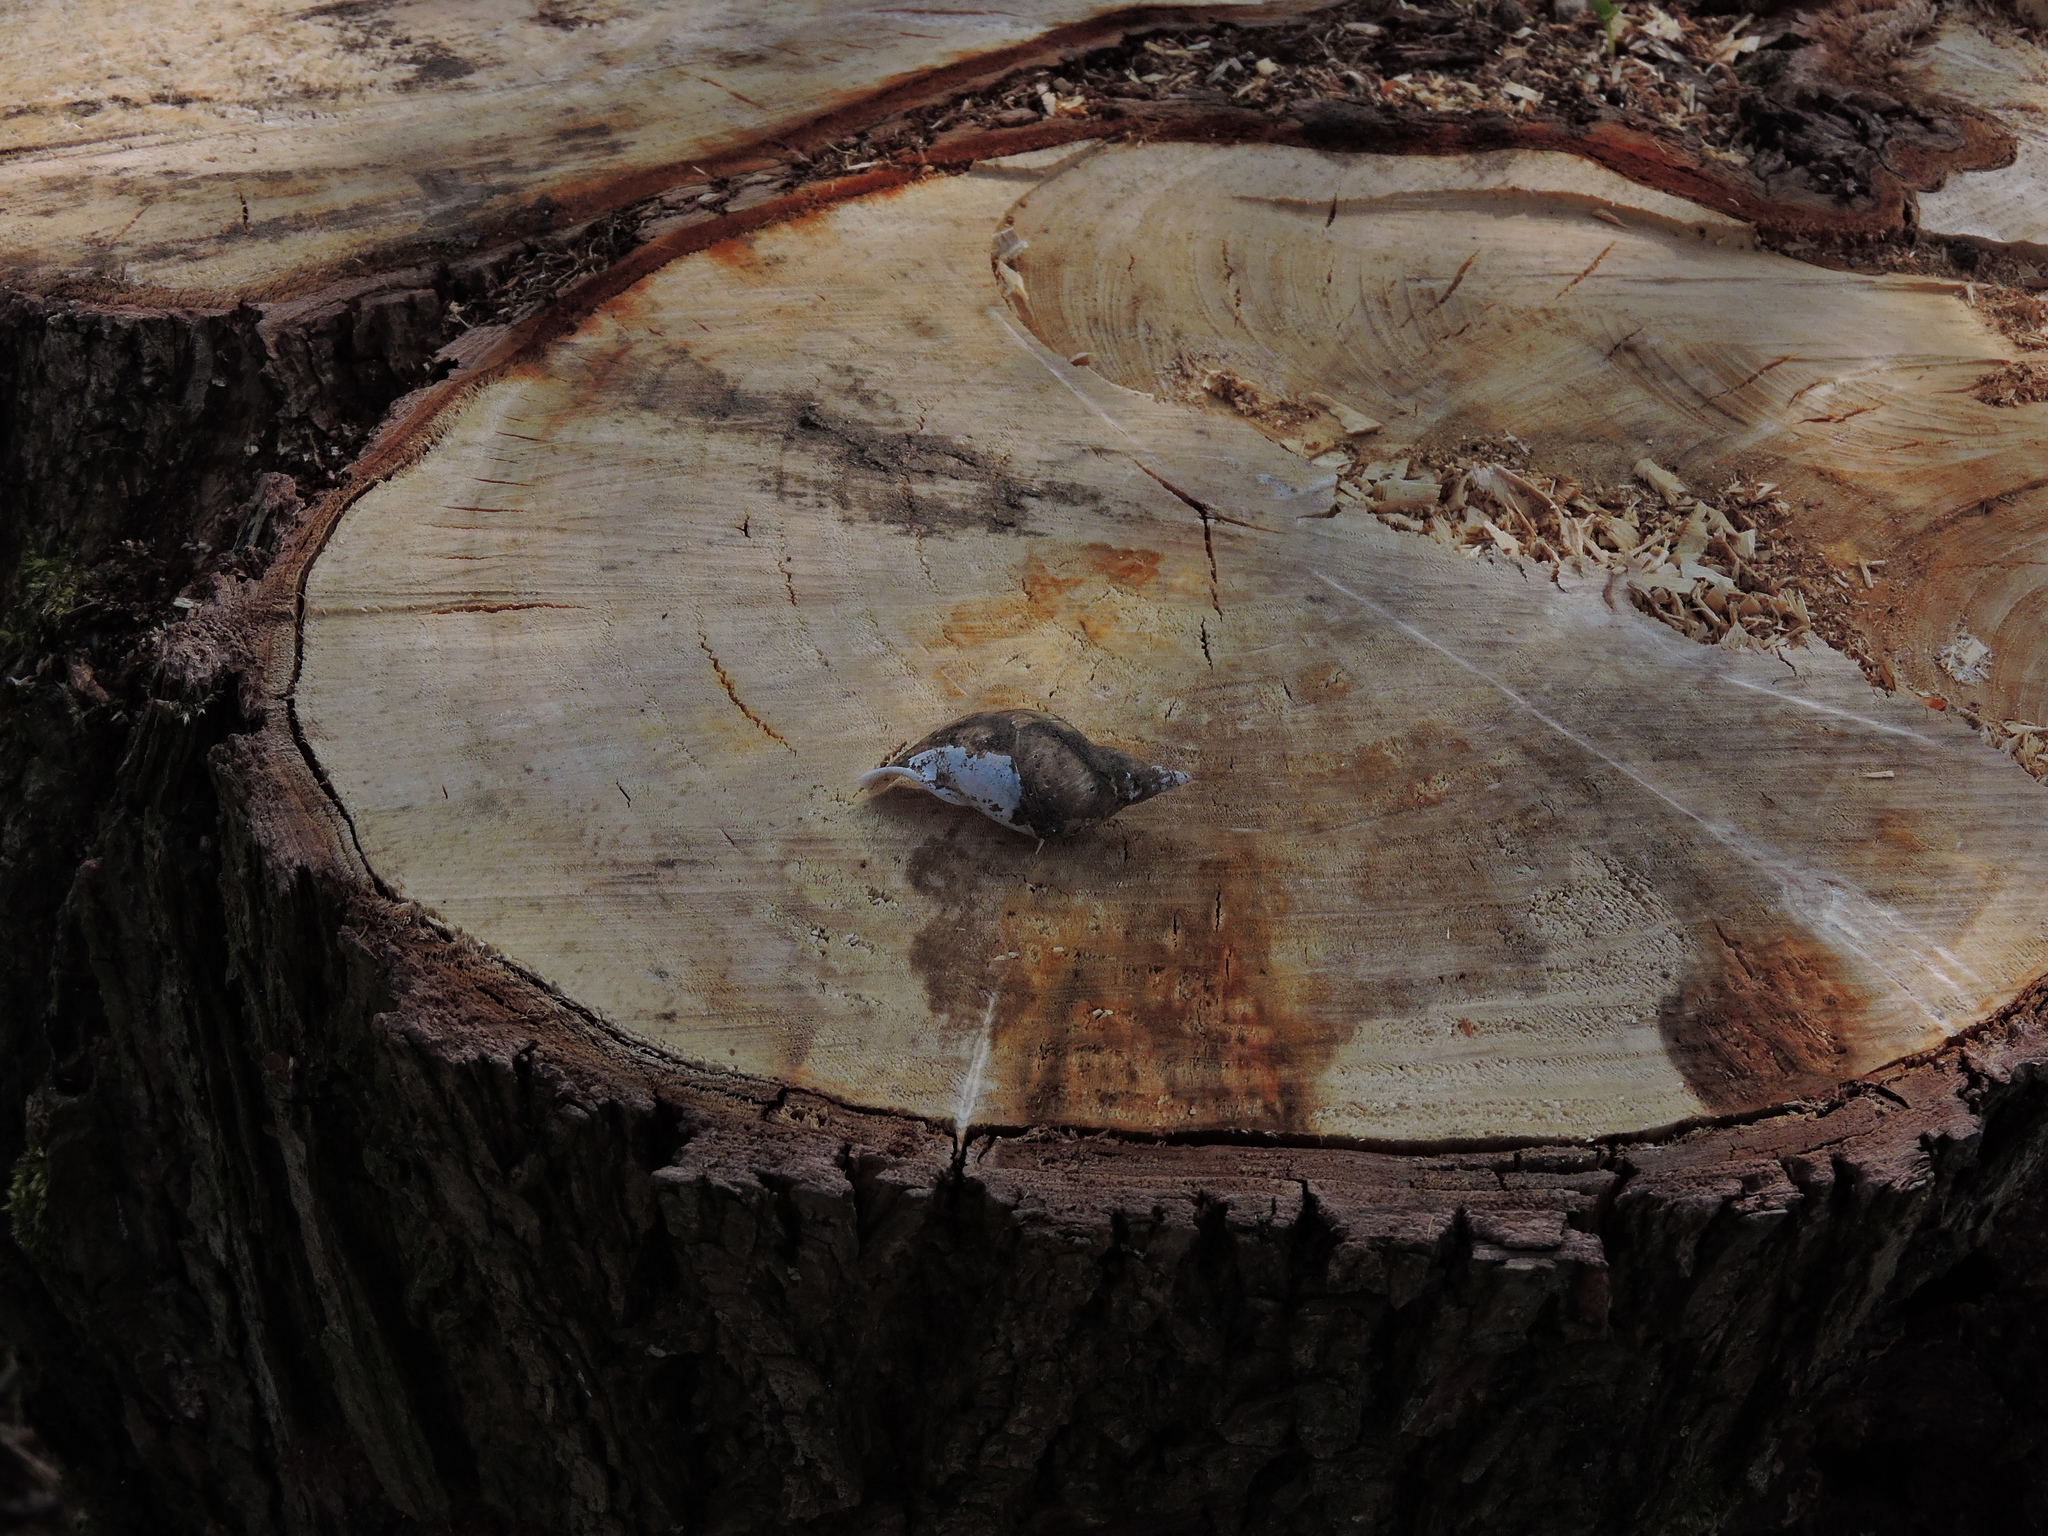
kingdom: Animalia
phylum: Mollusca
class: Gastropoda
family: Lymnaeidae
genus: Lymnaea
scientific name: Lymnaea stagnalis
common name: Great pond snail
